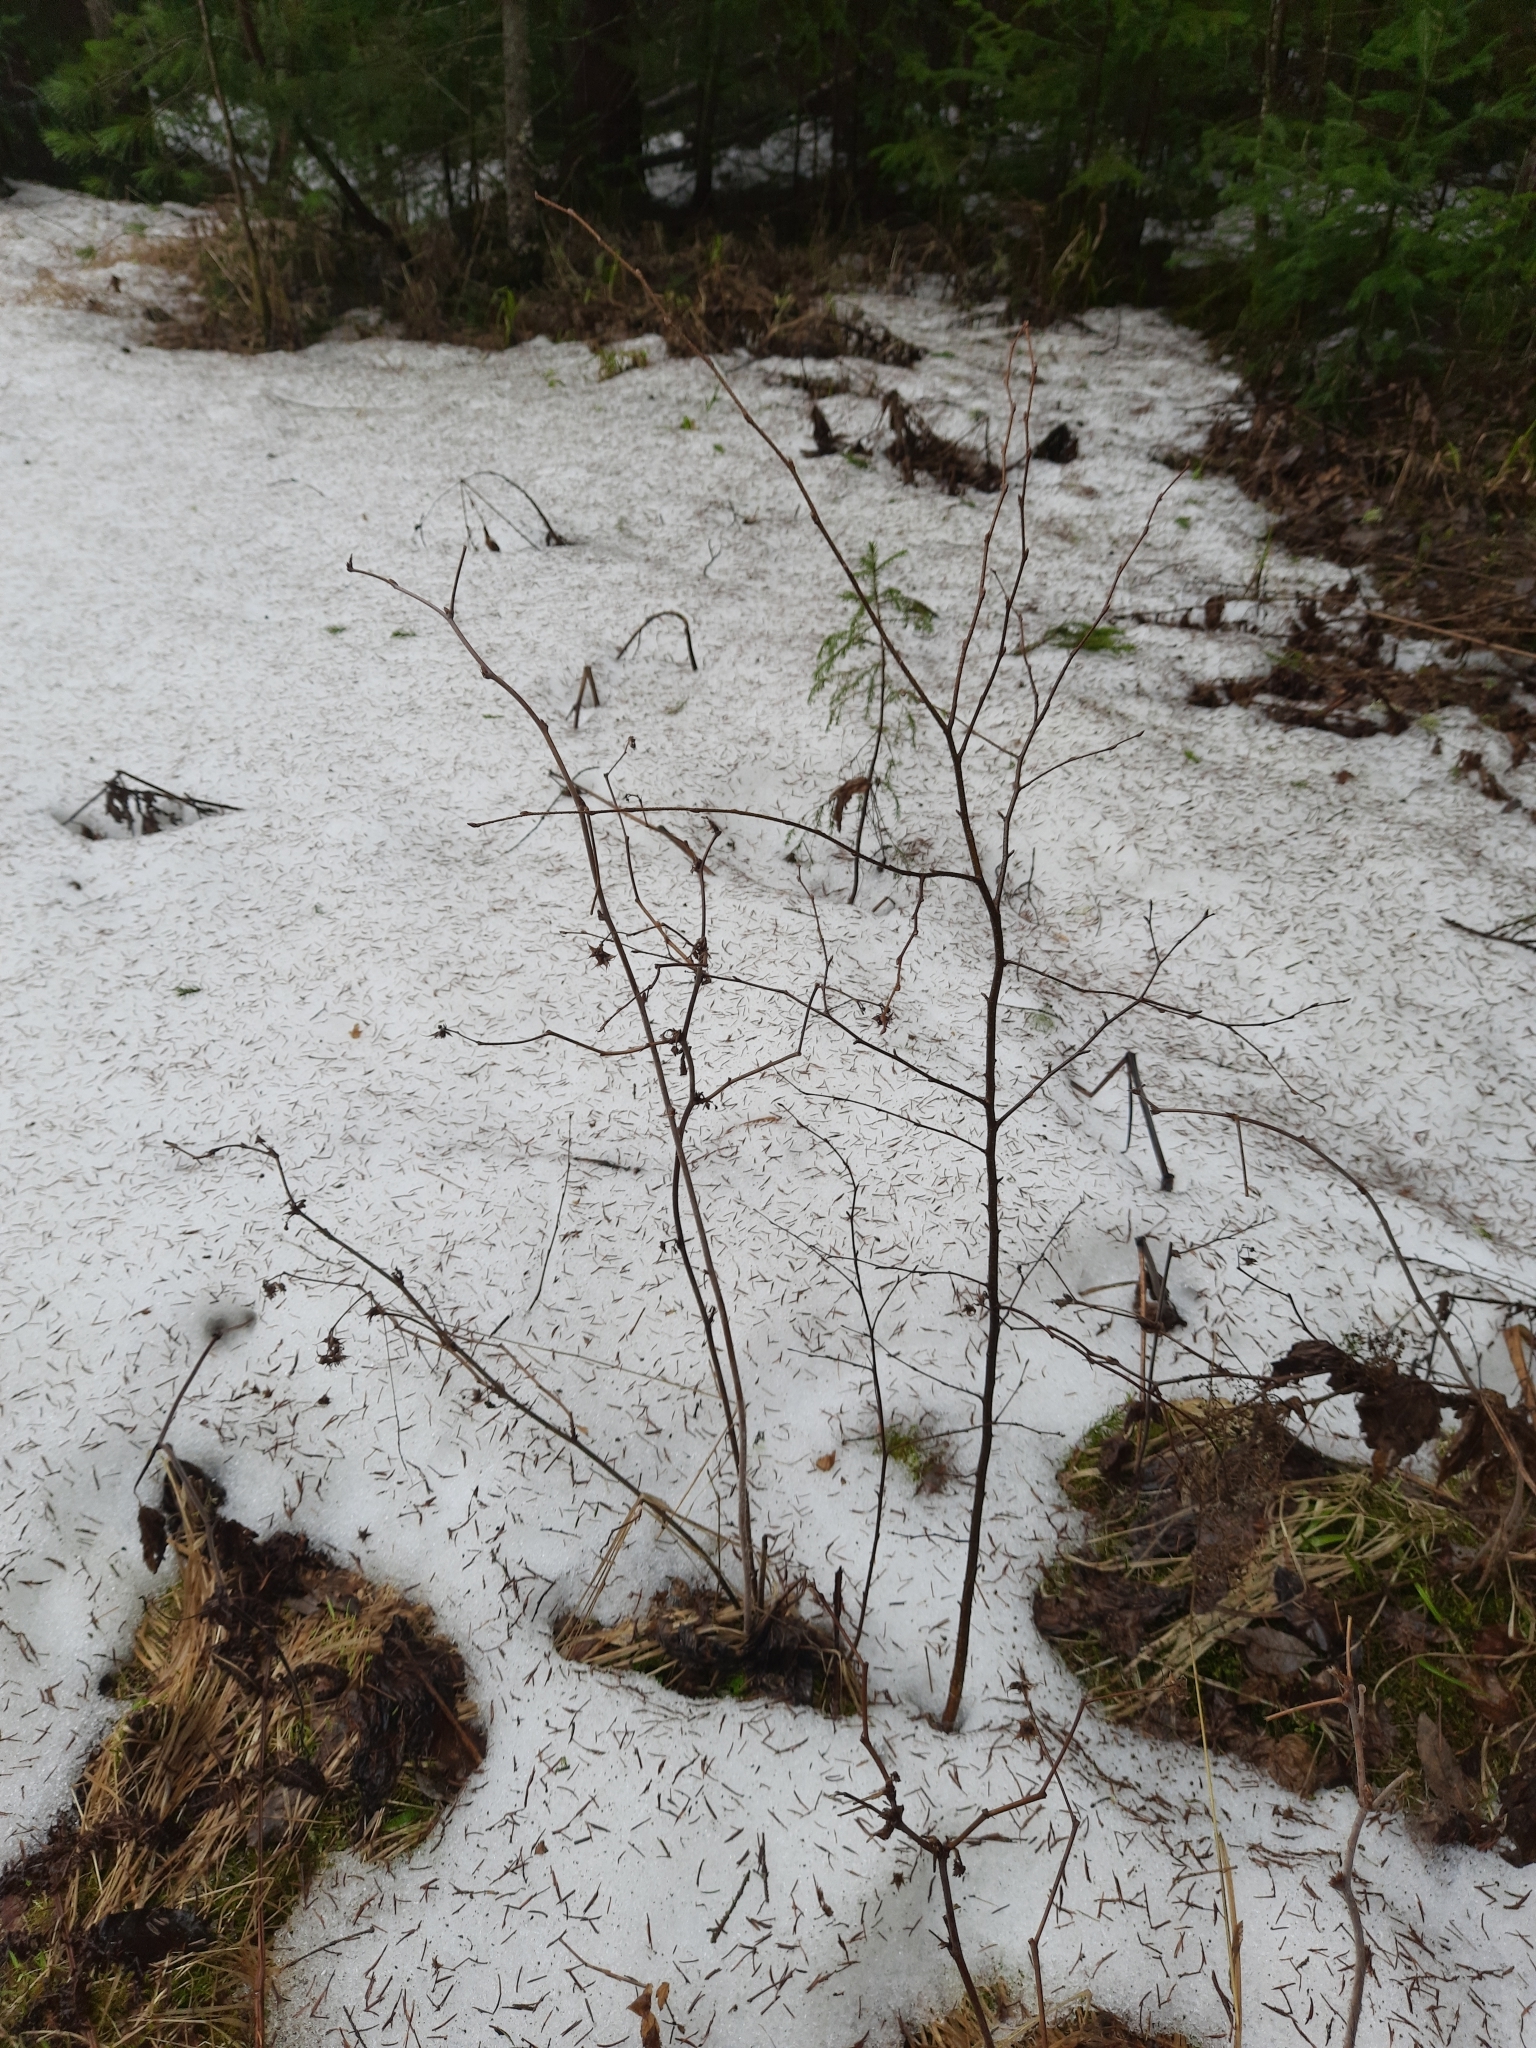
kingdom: Plantae
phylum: Tracheophyta
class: Magnoliopsida
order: Rosales
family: Rosaceae
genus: Rubus
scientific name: Rubus idaeus
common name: Raspberry
